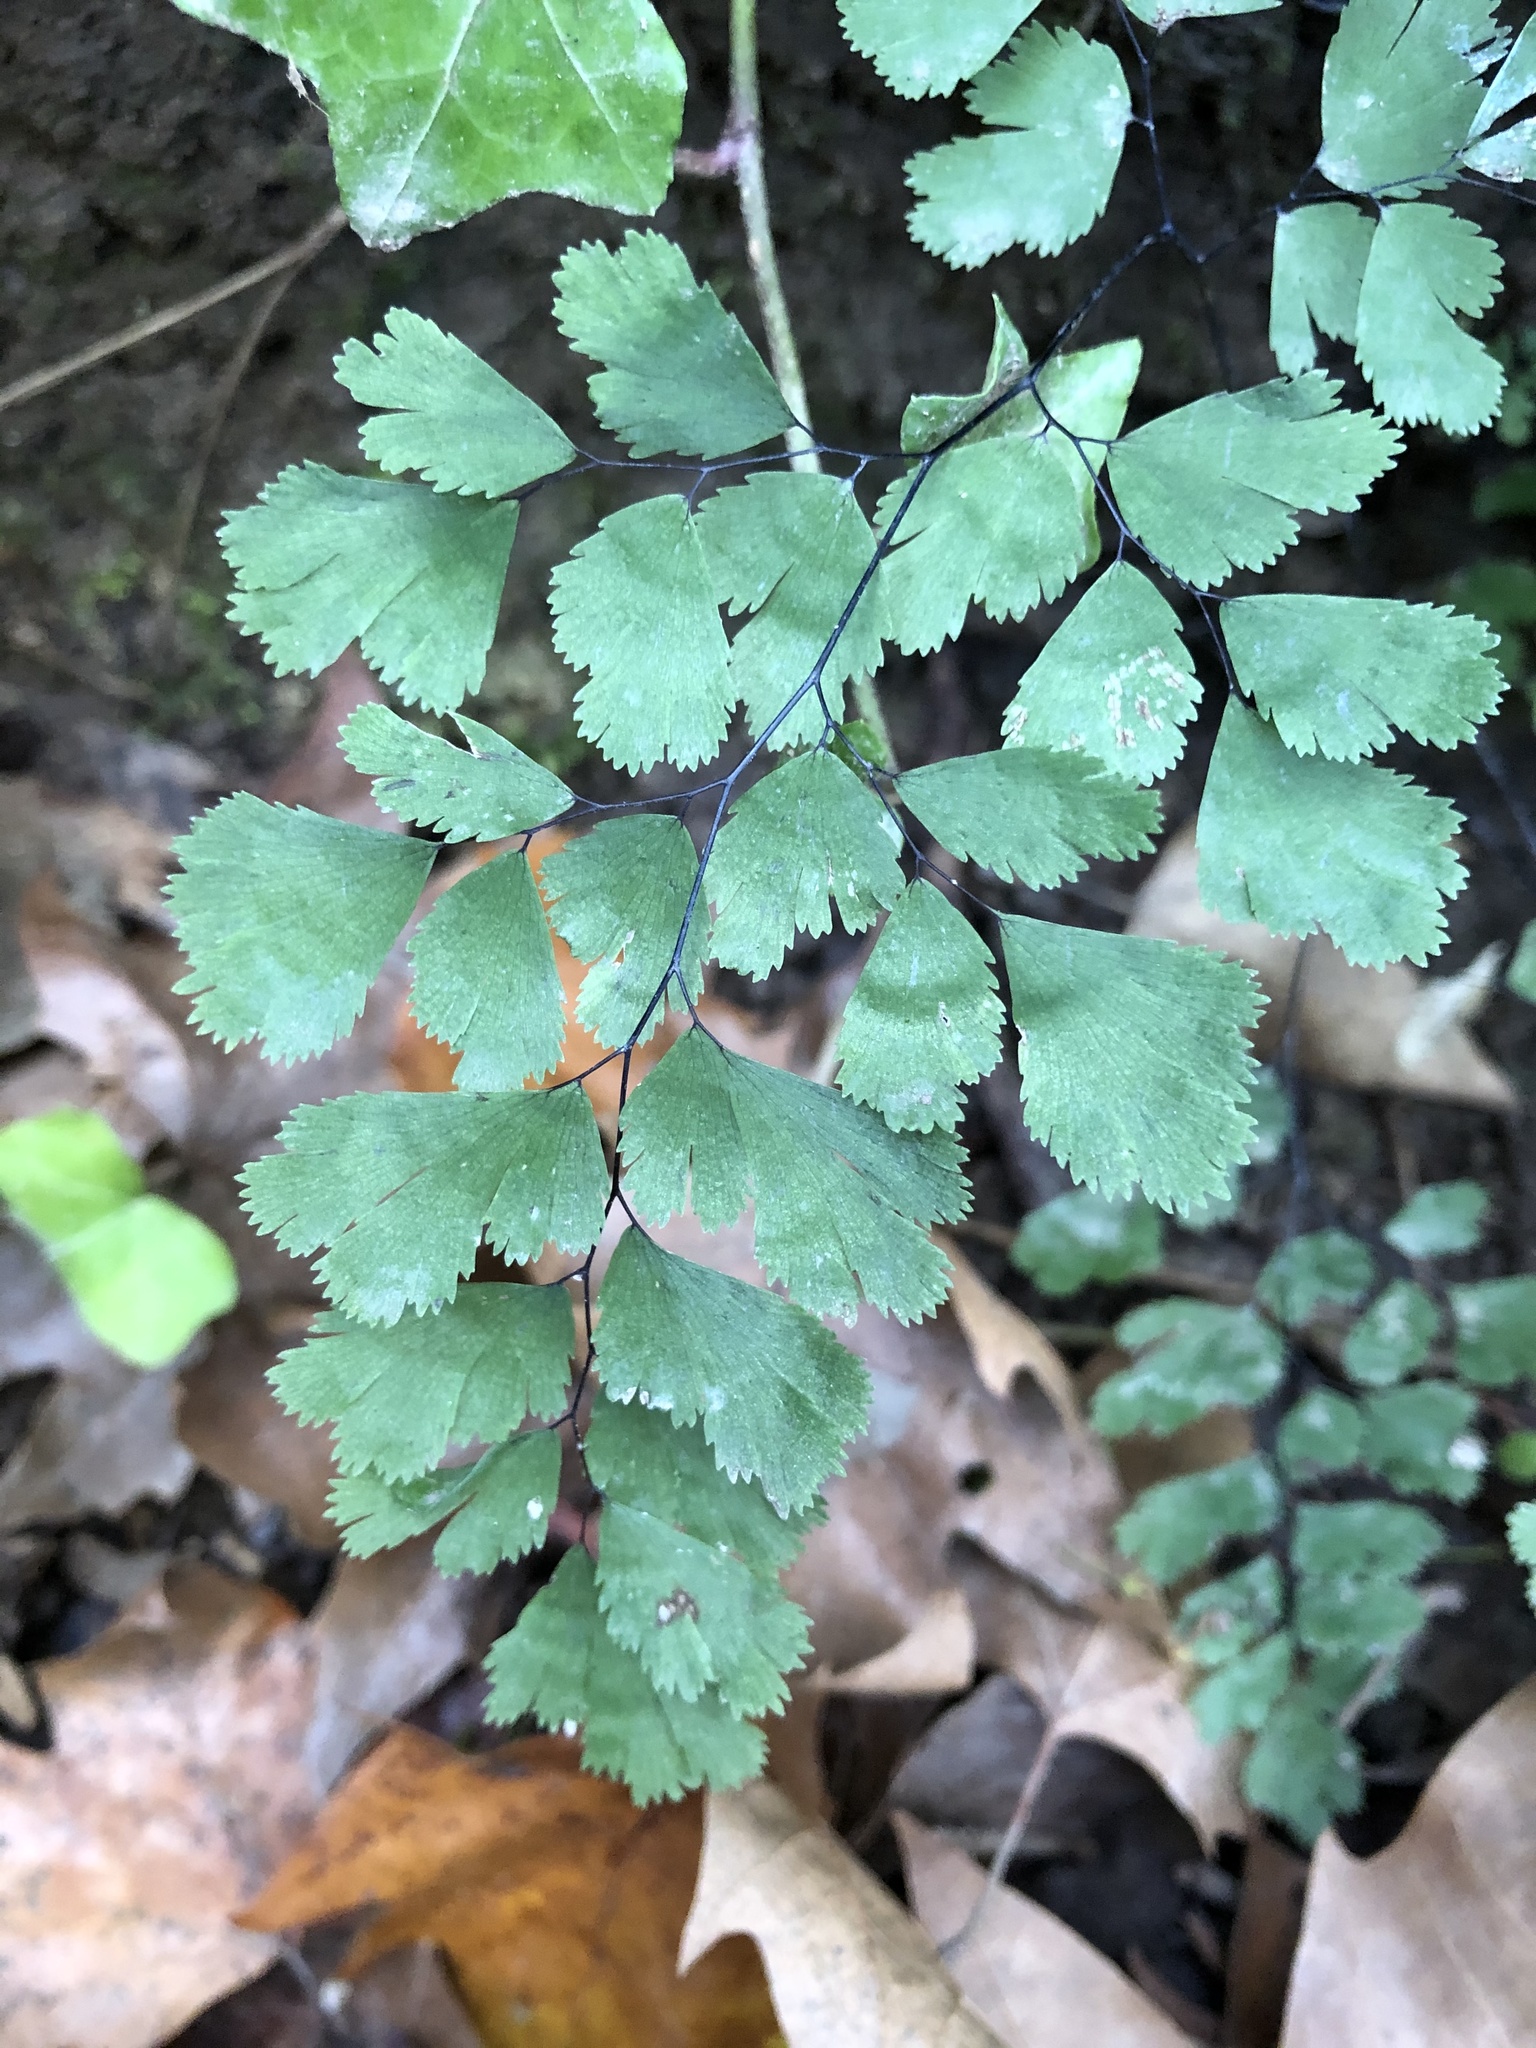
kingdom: Plantae
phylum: Tracheophyta
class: Polypodiopsida
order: Polypodiales
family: Pteridaceae
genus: Adiantum
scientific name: Adiantum capillus-veneris
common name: Maidenhair fern
